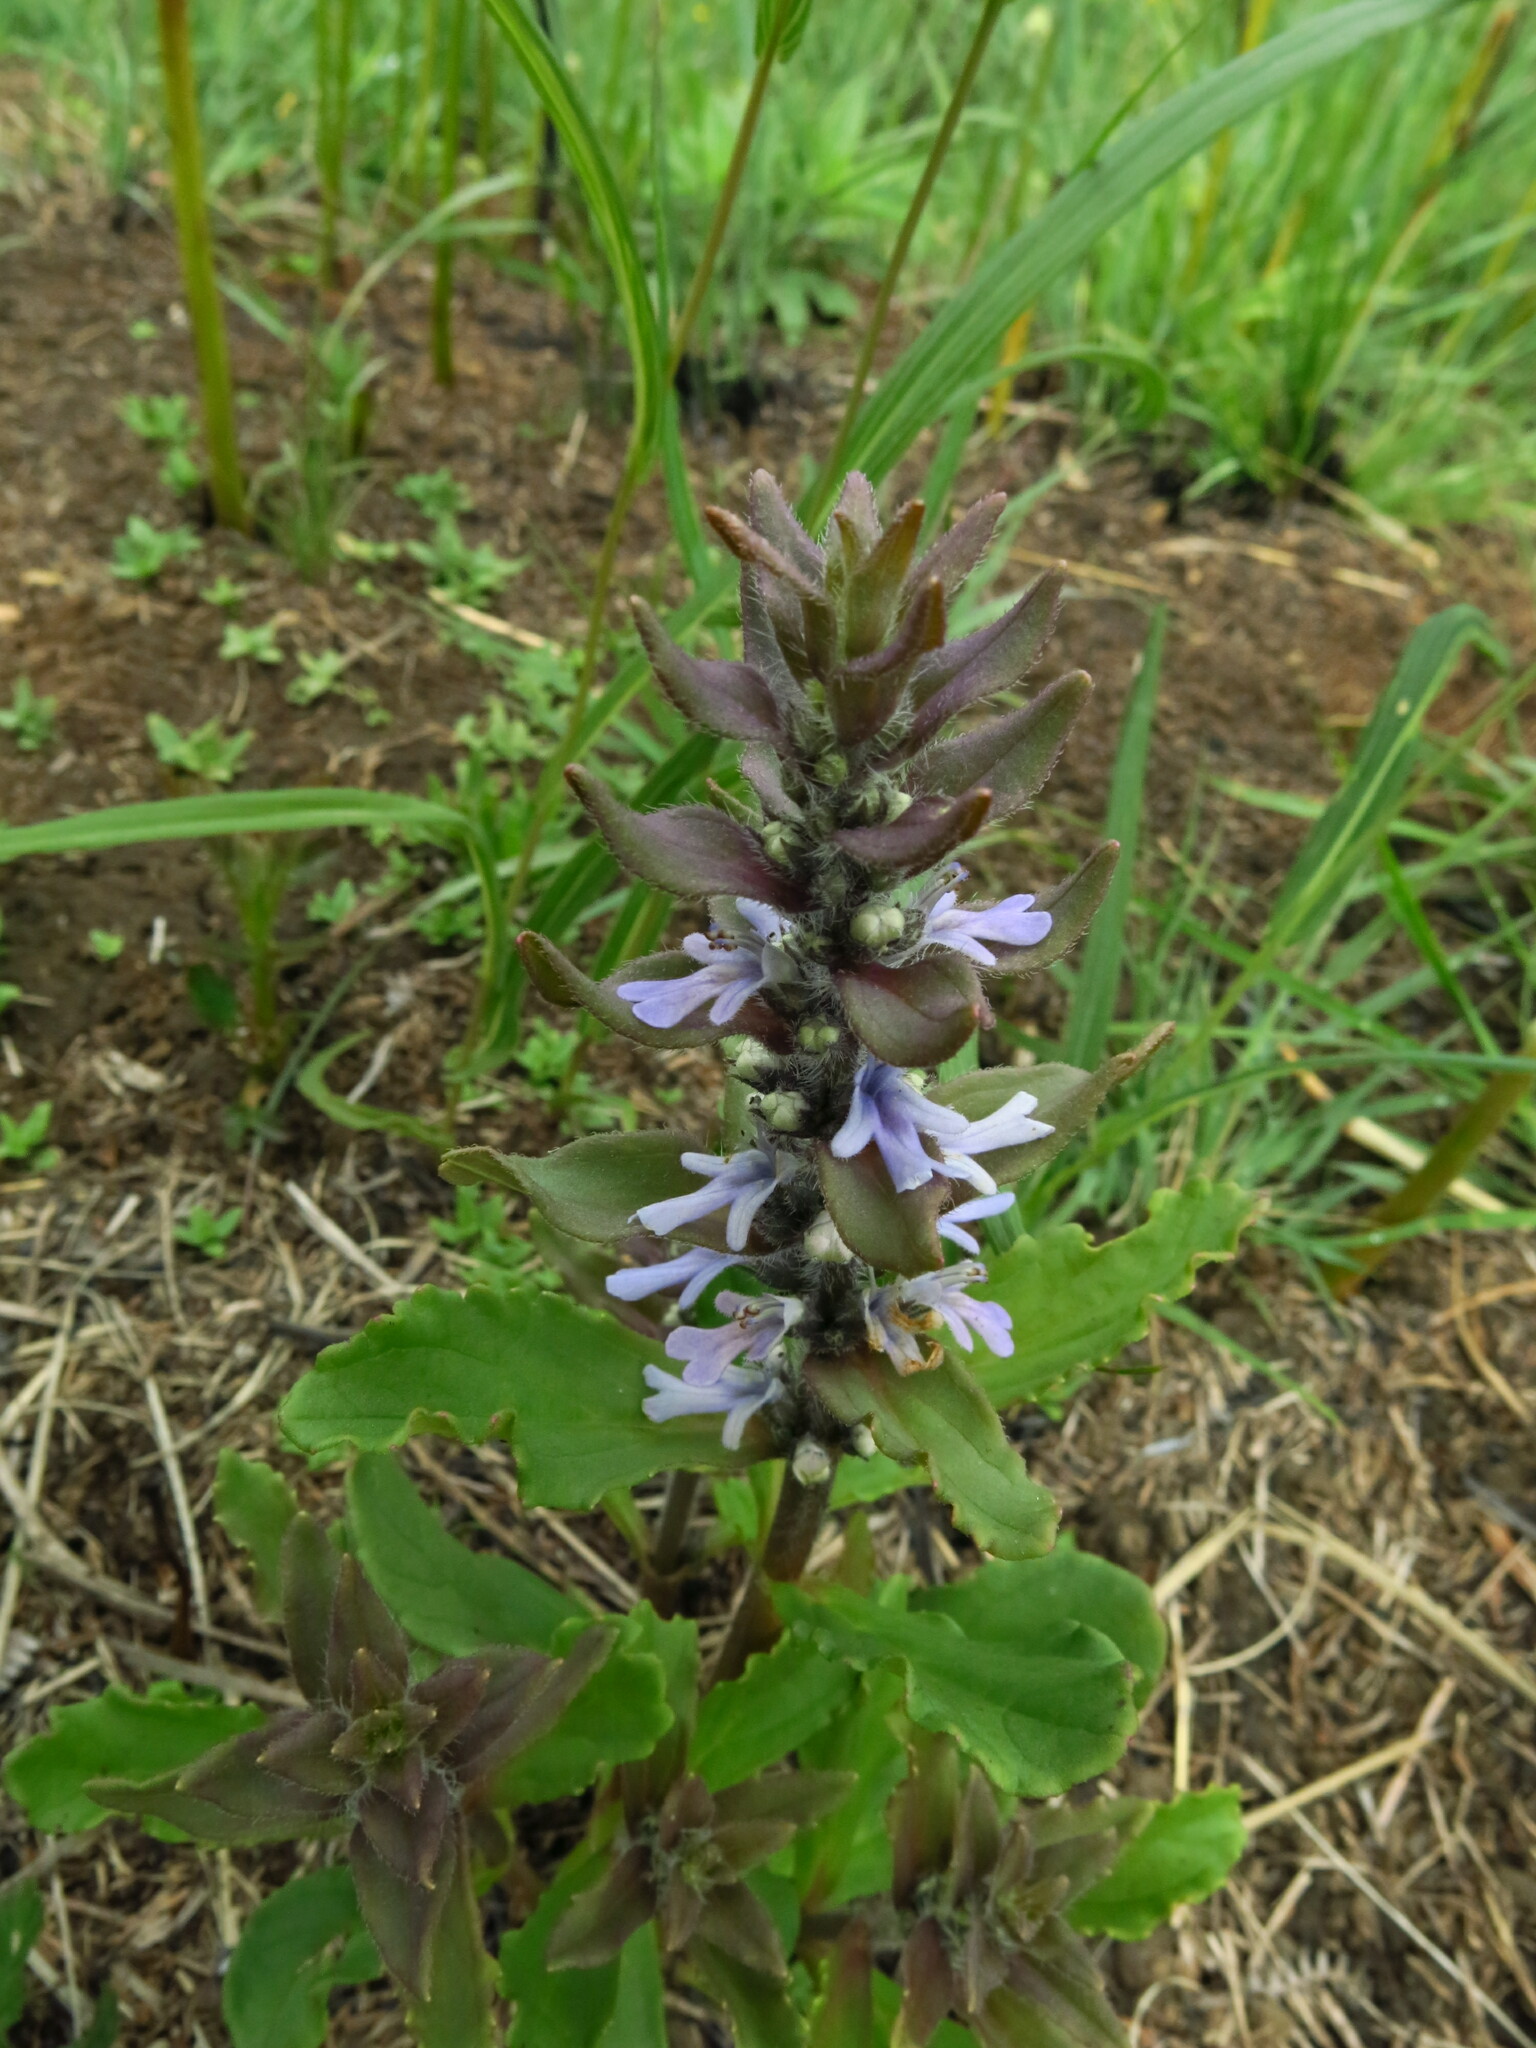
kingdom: Plantae
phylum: Tracheophyta
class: Magnoliopsida
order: Lamiales
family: Lamiaceae
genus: Ajuga
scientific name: Ajuga ophrydis
